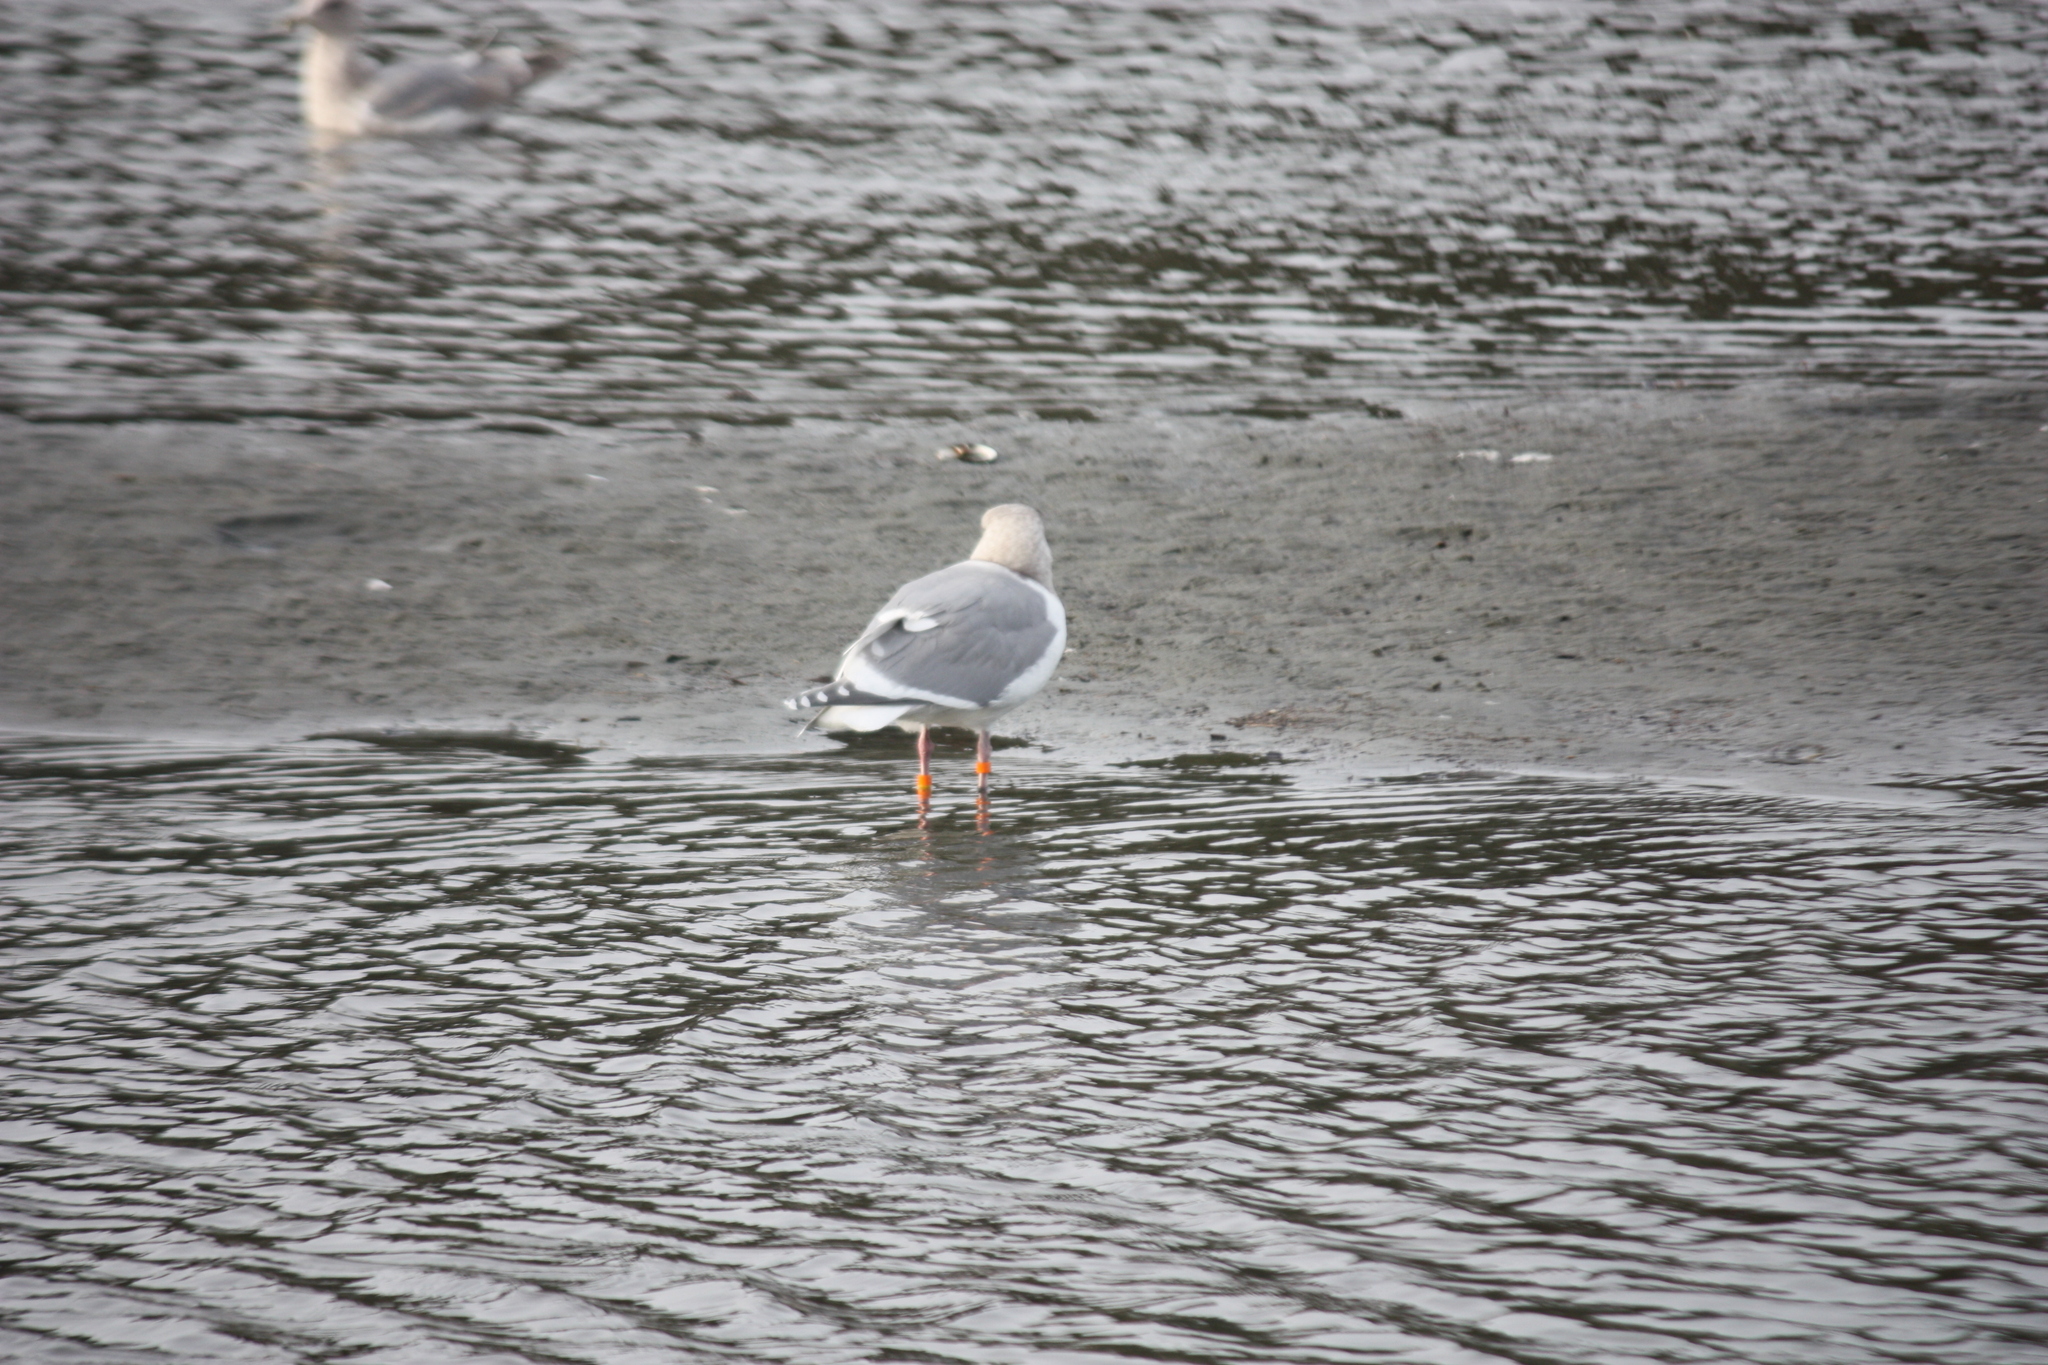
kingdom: Animalia
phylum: Chordata
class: Aves
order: Charadriiformes
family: Laridae
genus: Larus
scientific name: Larus glaucescens
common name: Glaucous-winged gull
